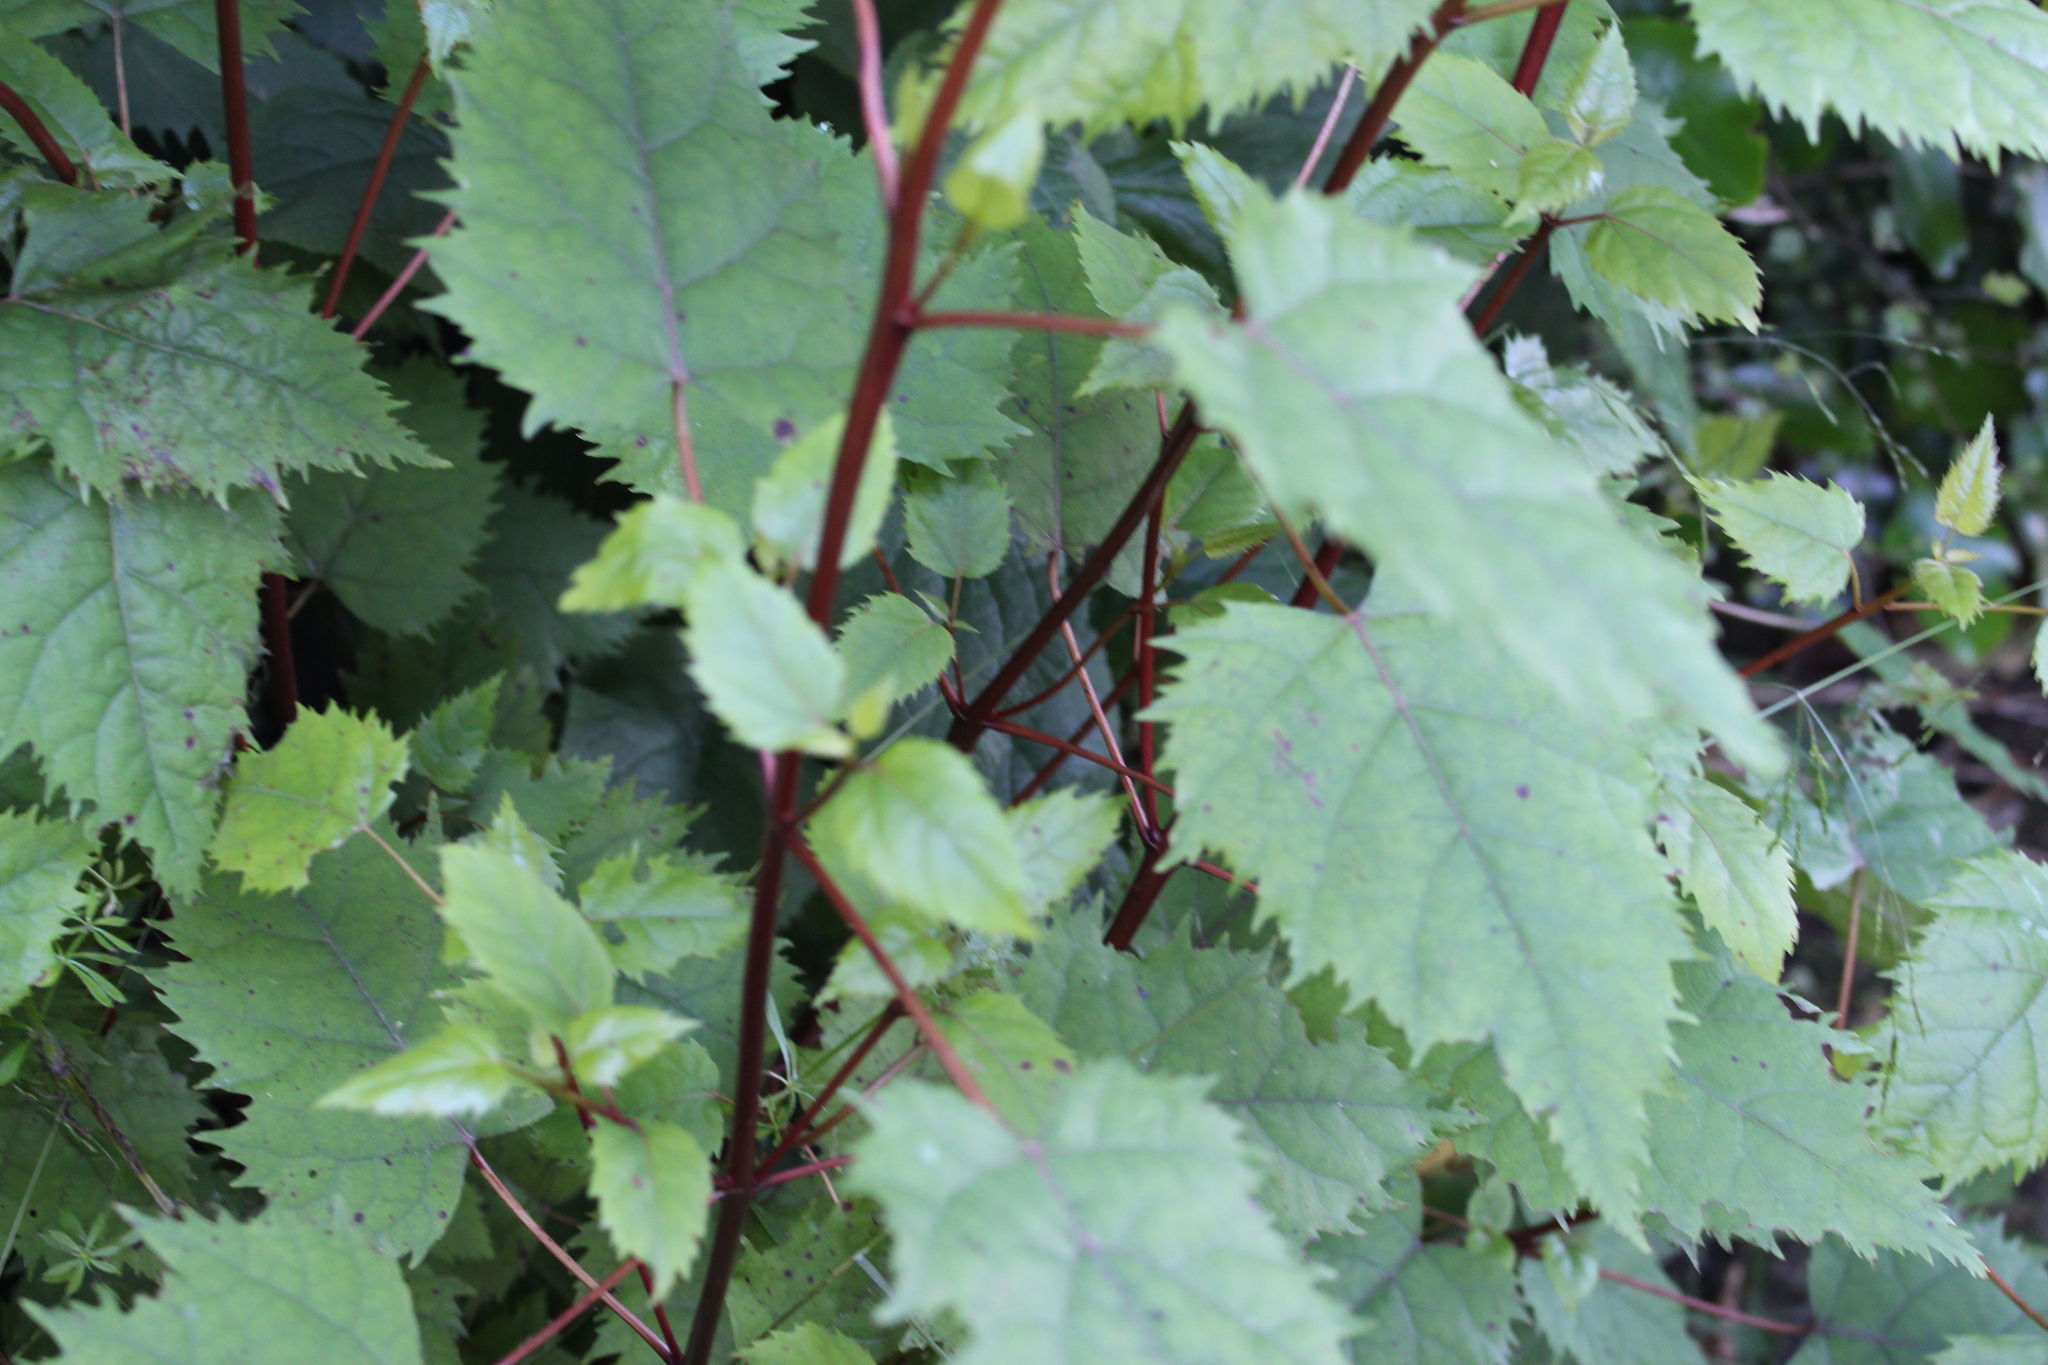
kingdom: Plantae
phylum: Tracheophyta
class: Magnoliopsida
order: Oxalidales
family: Elaeocarpaceae
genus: Aristotelia
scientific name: Aristotelia serrata
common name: New zealand wineberry
